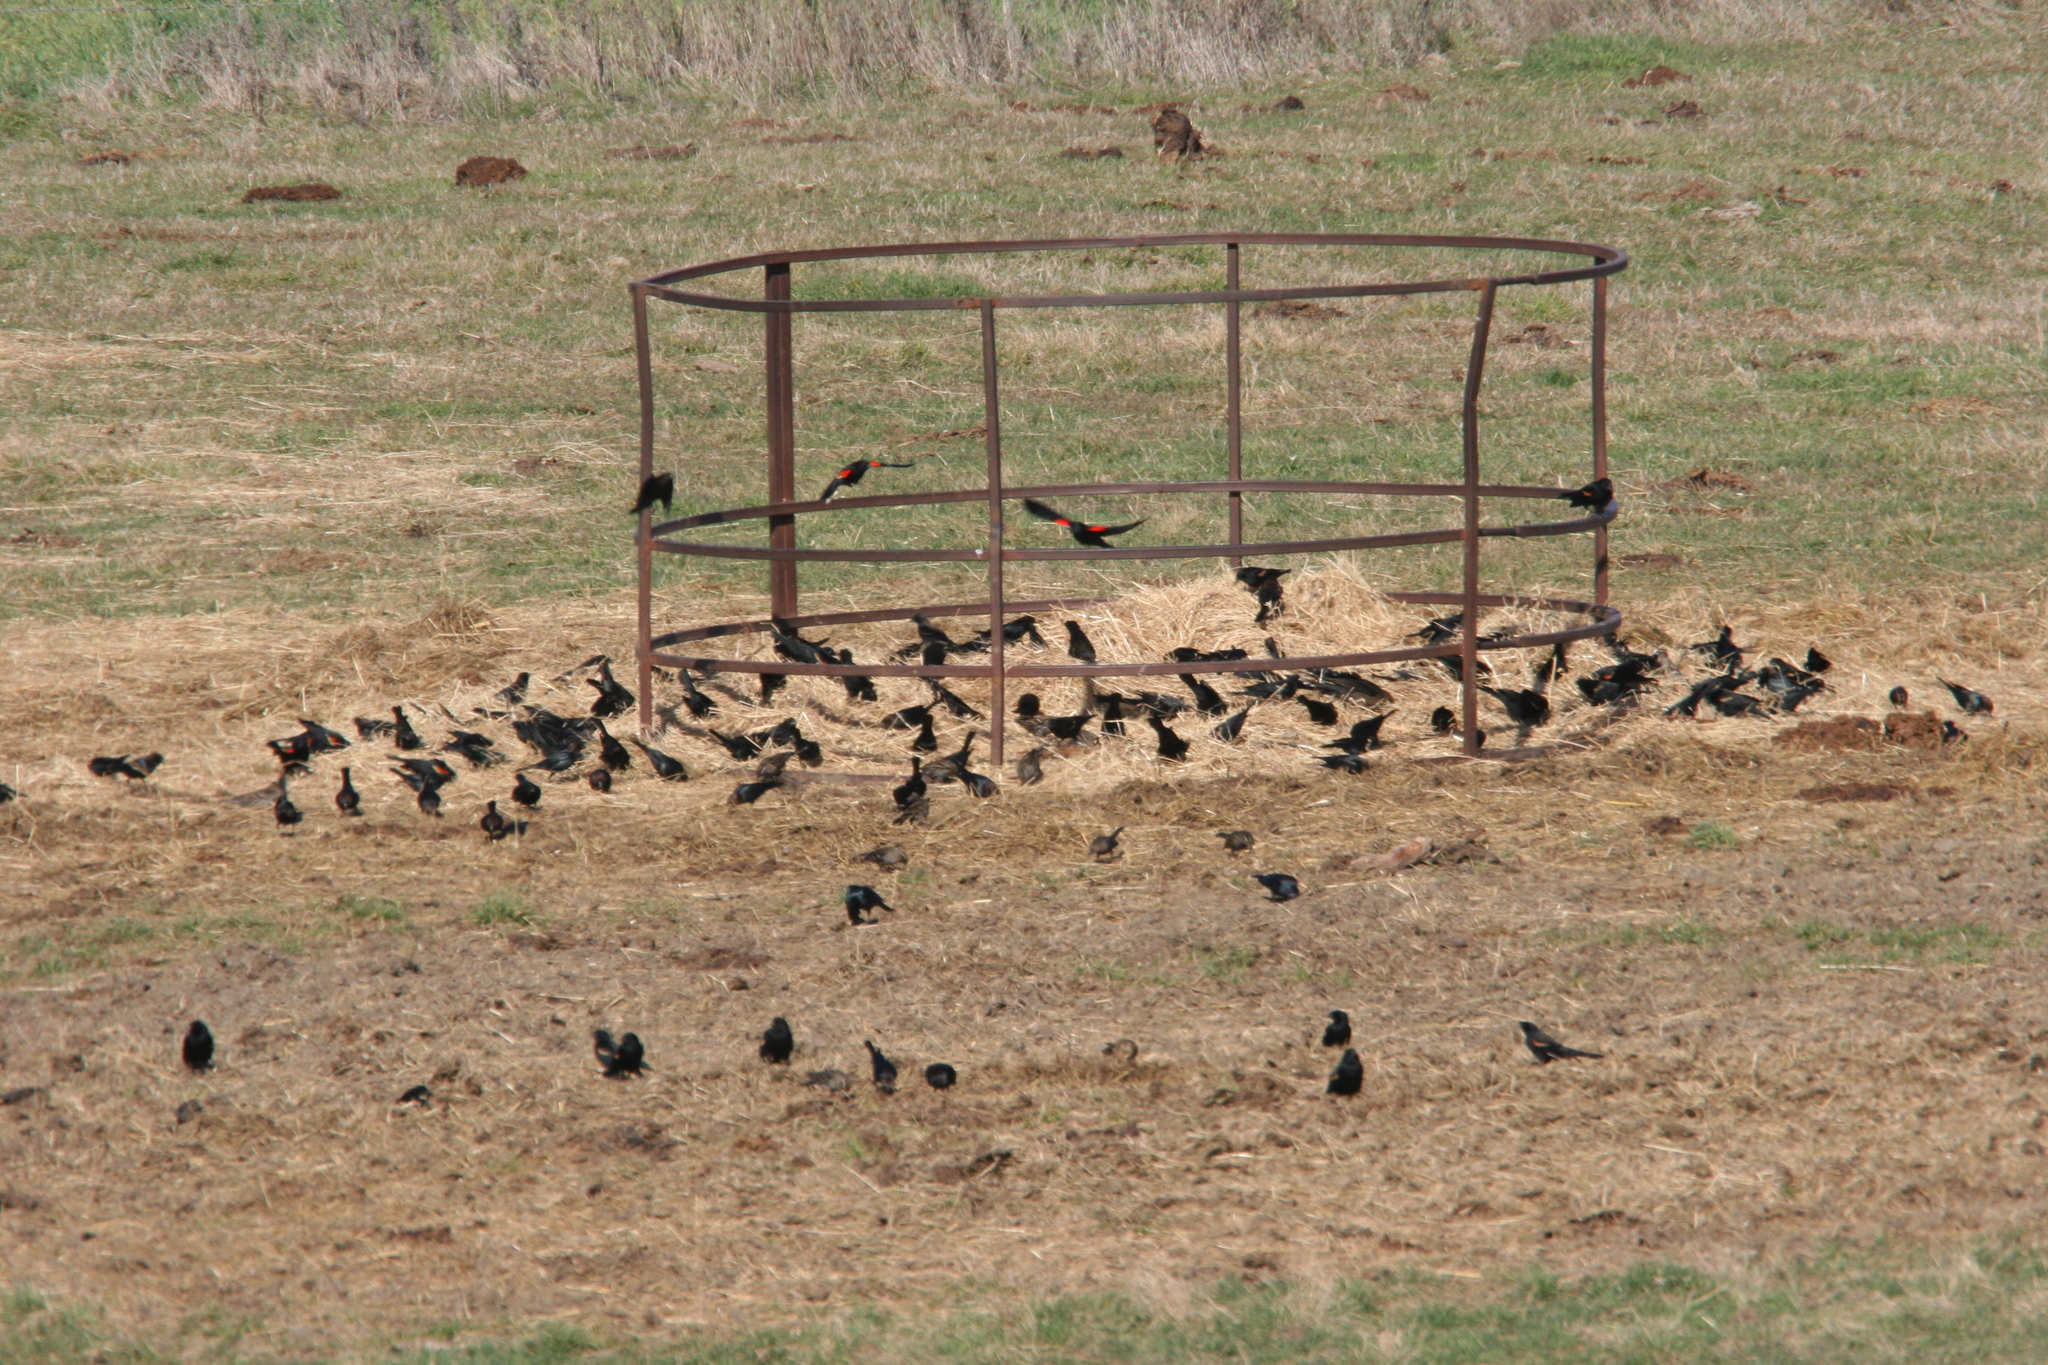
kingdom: Animalia
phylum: Chordata
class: Aves
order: Passeriformes
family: Icteridae
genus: Agelaius
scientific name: Agelaius phoeniceus
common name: Red-winged blackbird
